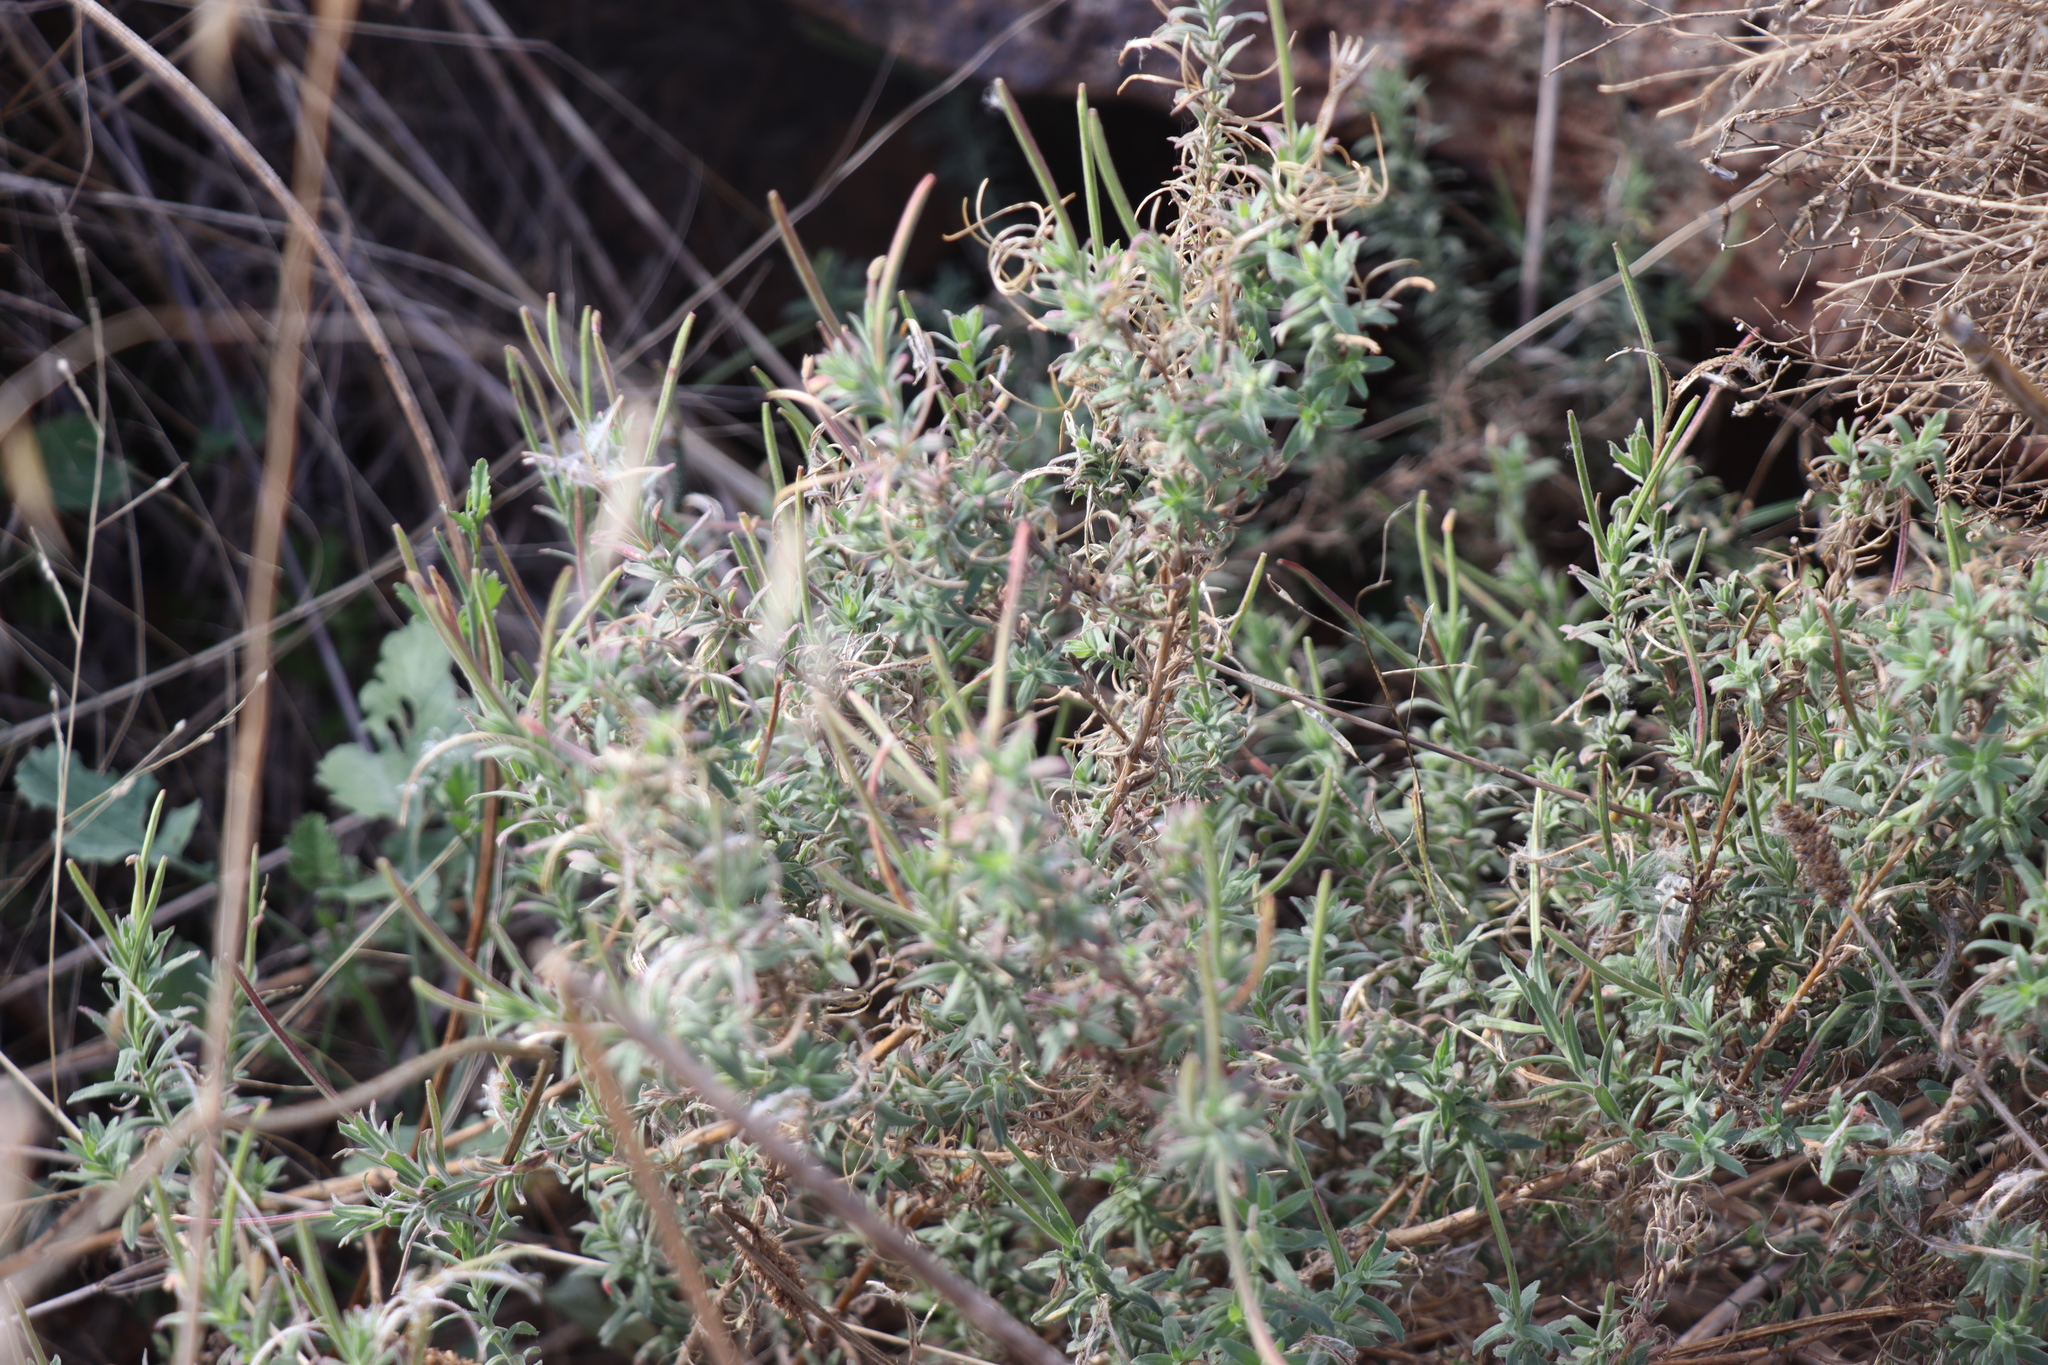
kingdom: Plantae
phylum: Tracheophyta
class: Magnoliopsida
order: Myrtales
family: Onagraceae
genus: Epilobium
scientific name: Epilobium hirtigerum
